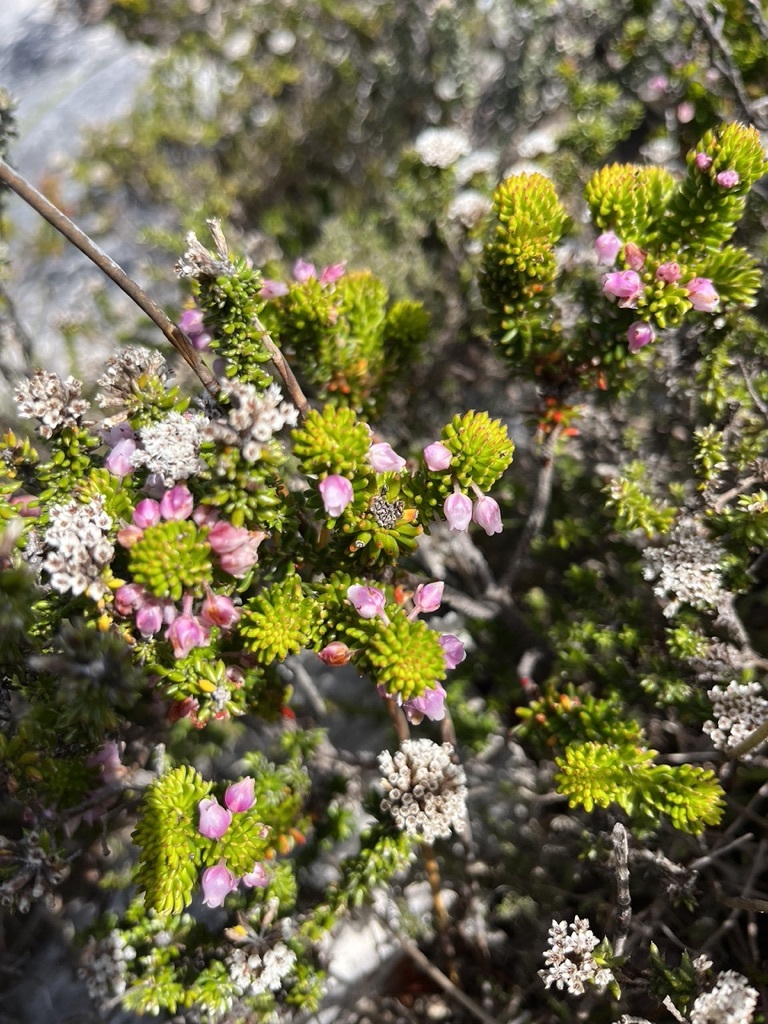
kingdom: Plantae
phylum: Tracheophyta
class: Magnoliopsida
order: Ericales
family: Ericaceae
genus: Erica
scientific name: Erica pulvinata
